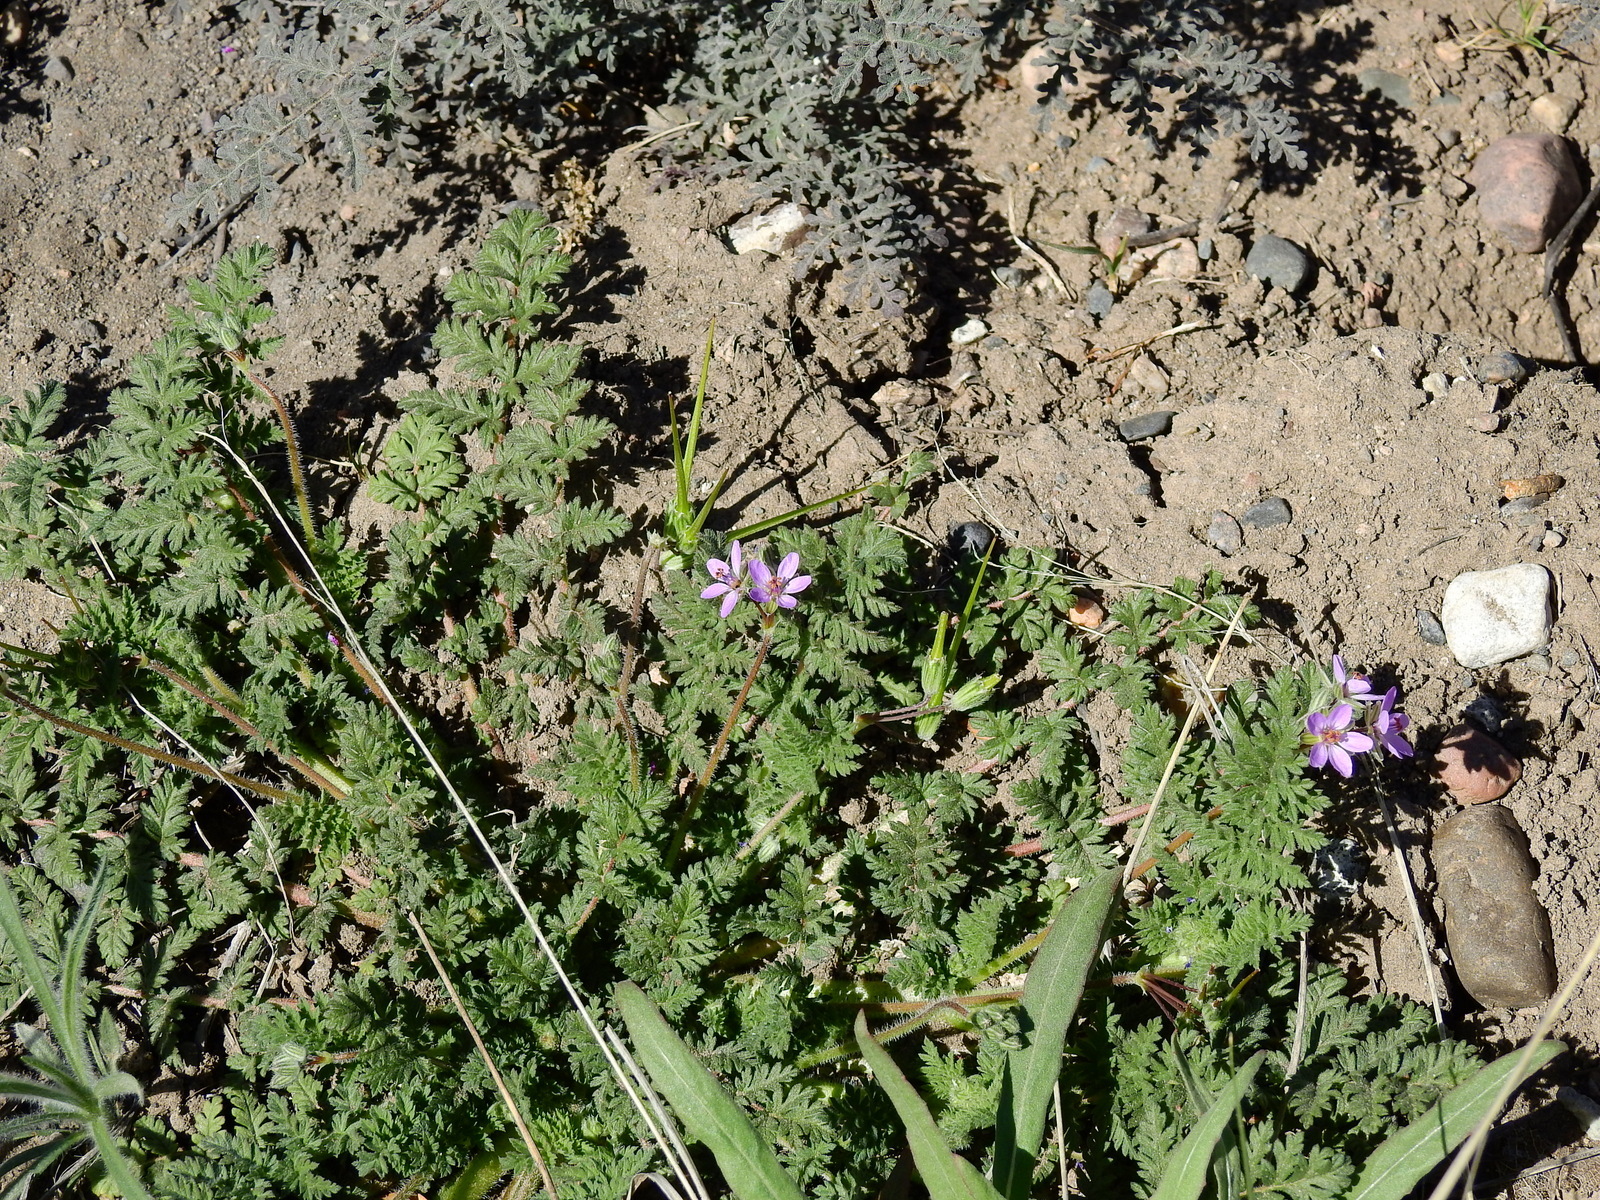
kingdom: Plantae
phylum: Tracheophyta
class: Magnoliopsida
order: Geraniales
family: Geraniaceae
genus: Erodium
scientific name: Erodium cicutarium
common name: Common stork's-bill
